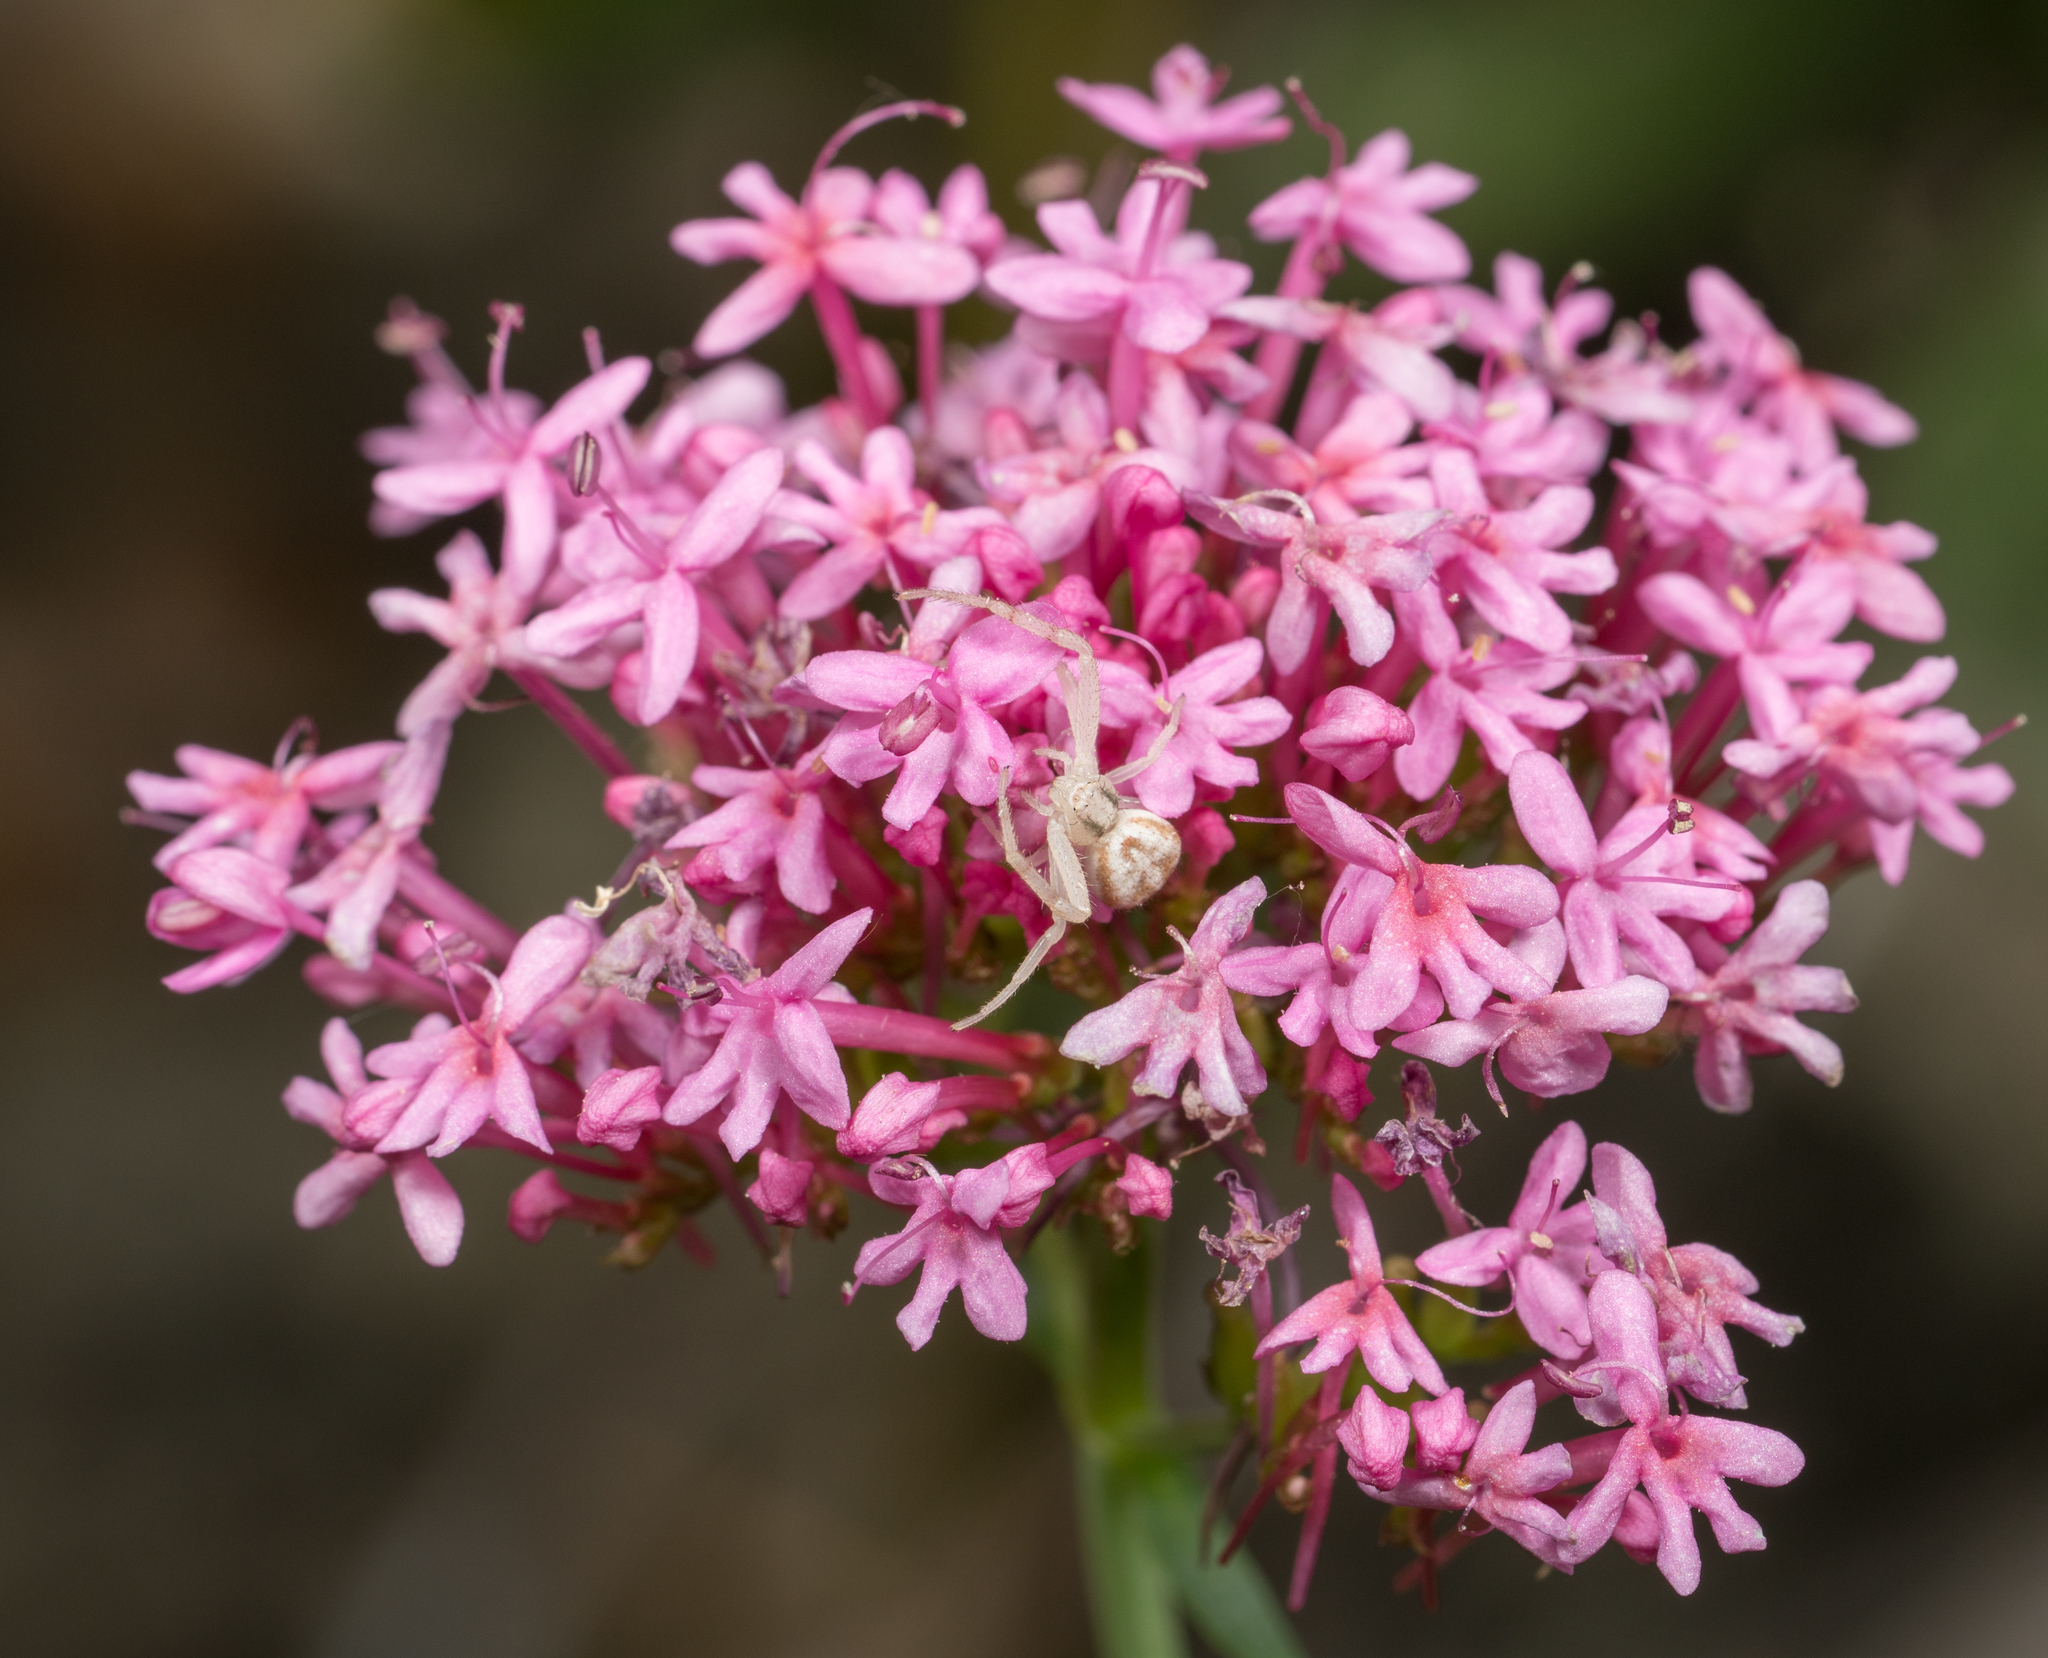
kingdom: Plantae
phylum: Tracheophyta
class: Magnoliopsida
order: Dipsacales
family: Caprifoliaceae
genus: Centranthus
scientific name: Centranthus ruber
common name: Red valerian
